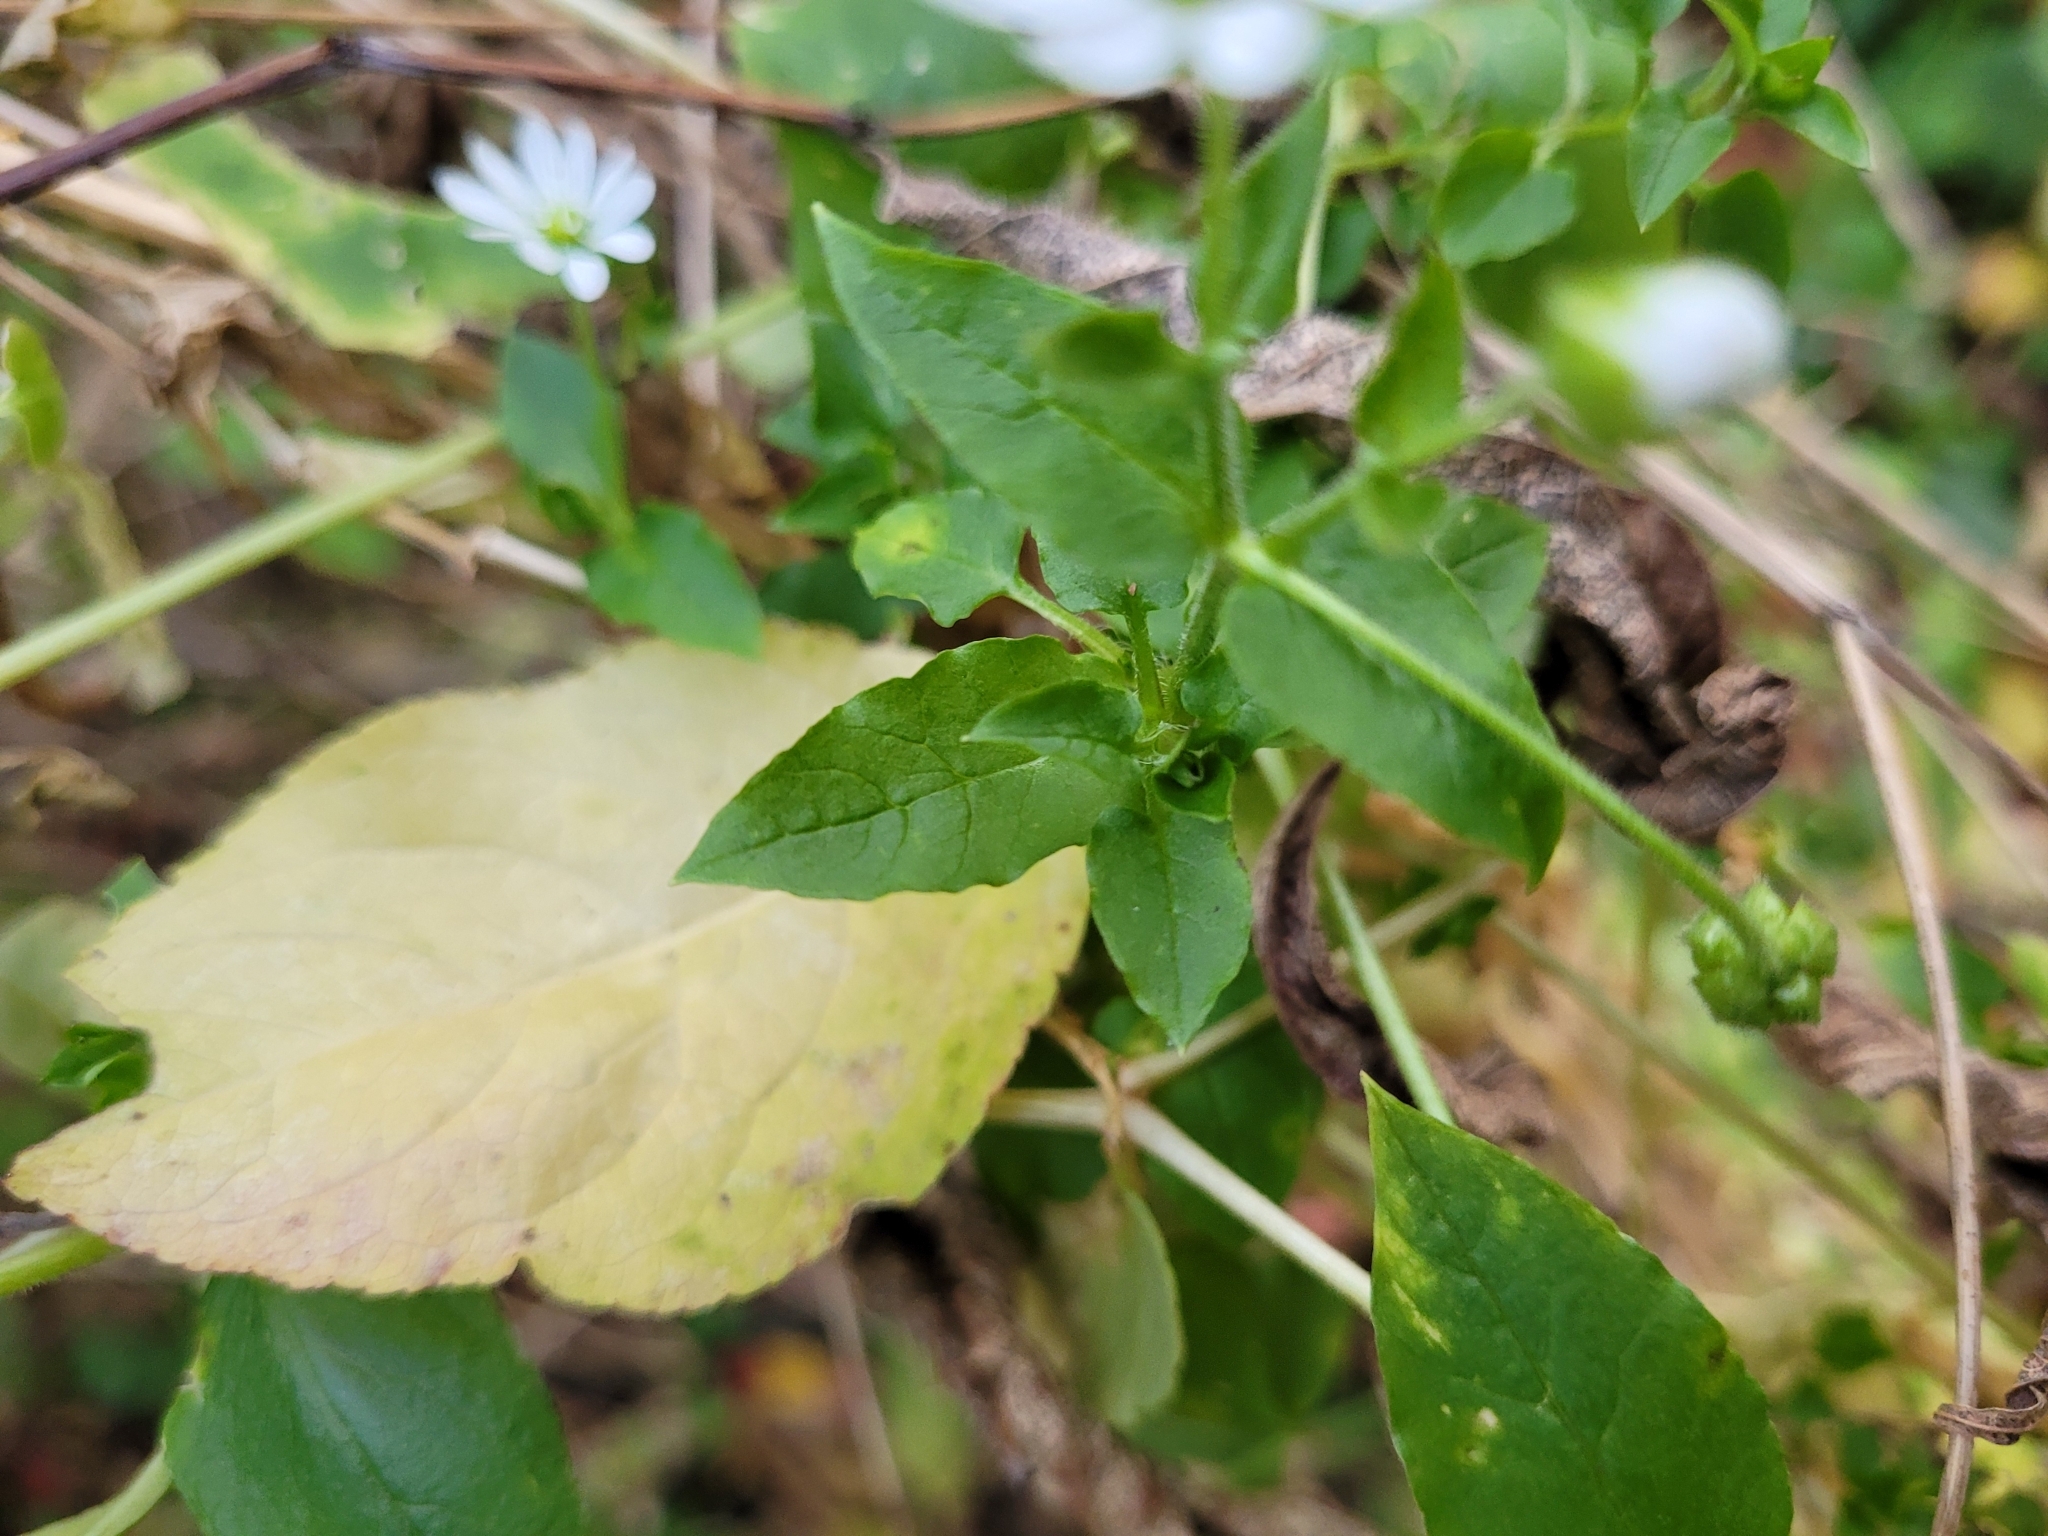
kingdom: Plantae
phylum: Tracheophyta
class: Magnoliopsida
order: Caryophyllales
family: Caryophyllaceae
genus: Stellaria
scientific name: Stellaria aquatica
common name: Water chickweed
